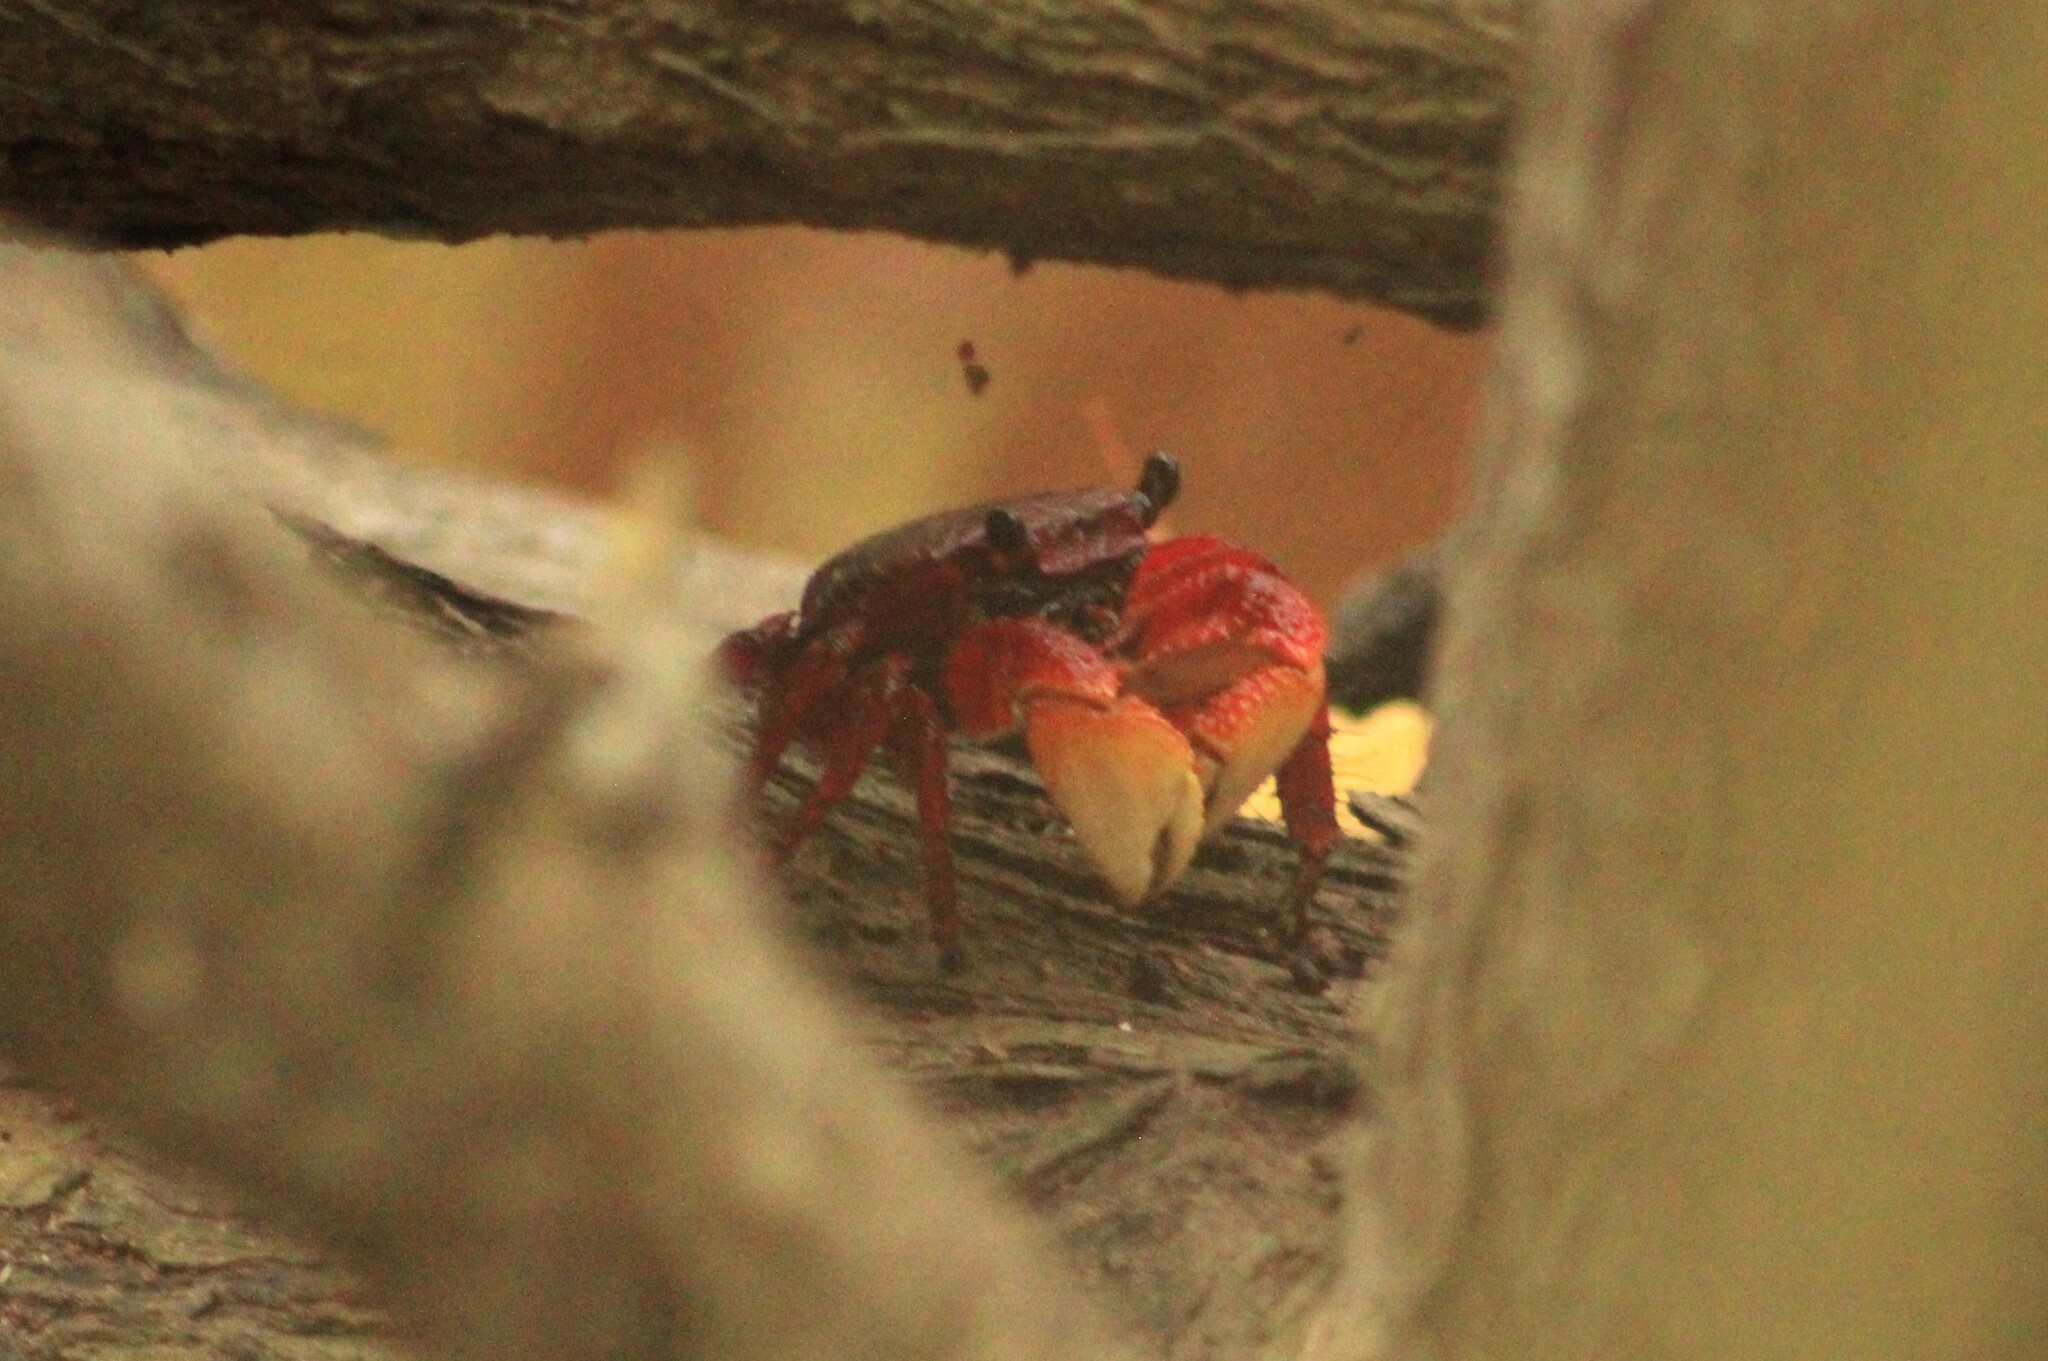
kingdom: Animalia
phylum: Arthropoda
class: Malacostraca
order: Decapoda
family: Grapsidae
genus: Goniopsis
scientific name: Goniopsis pulchra
